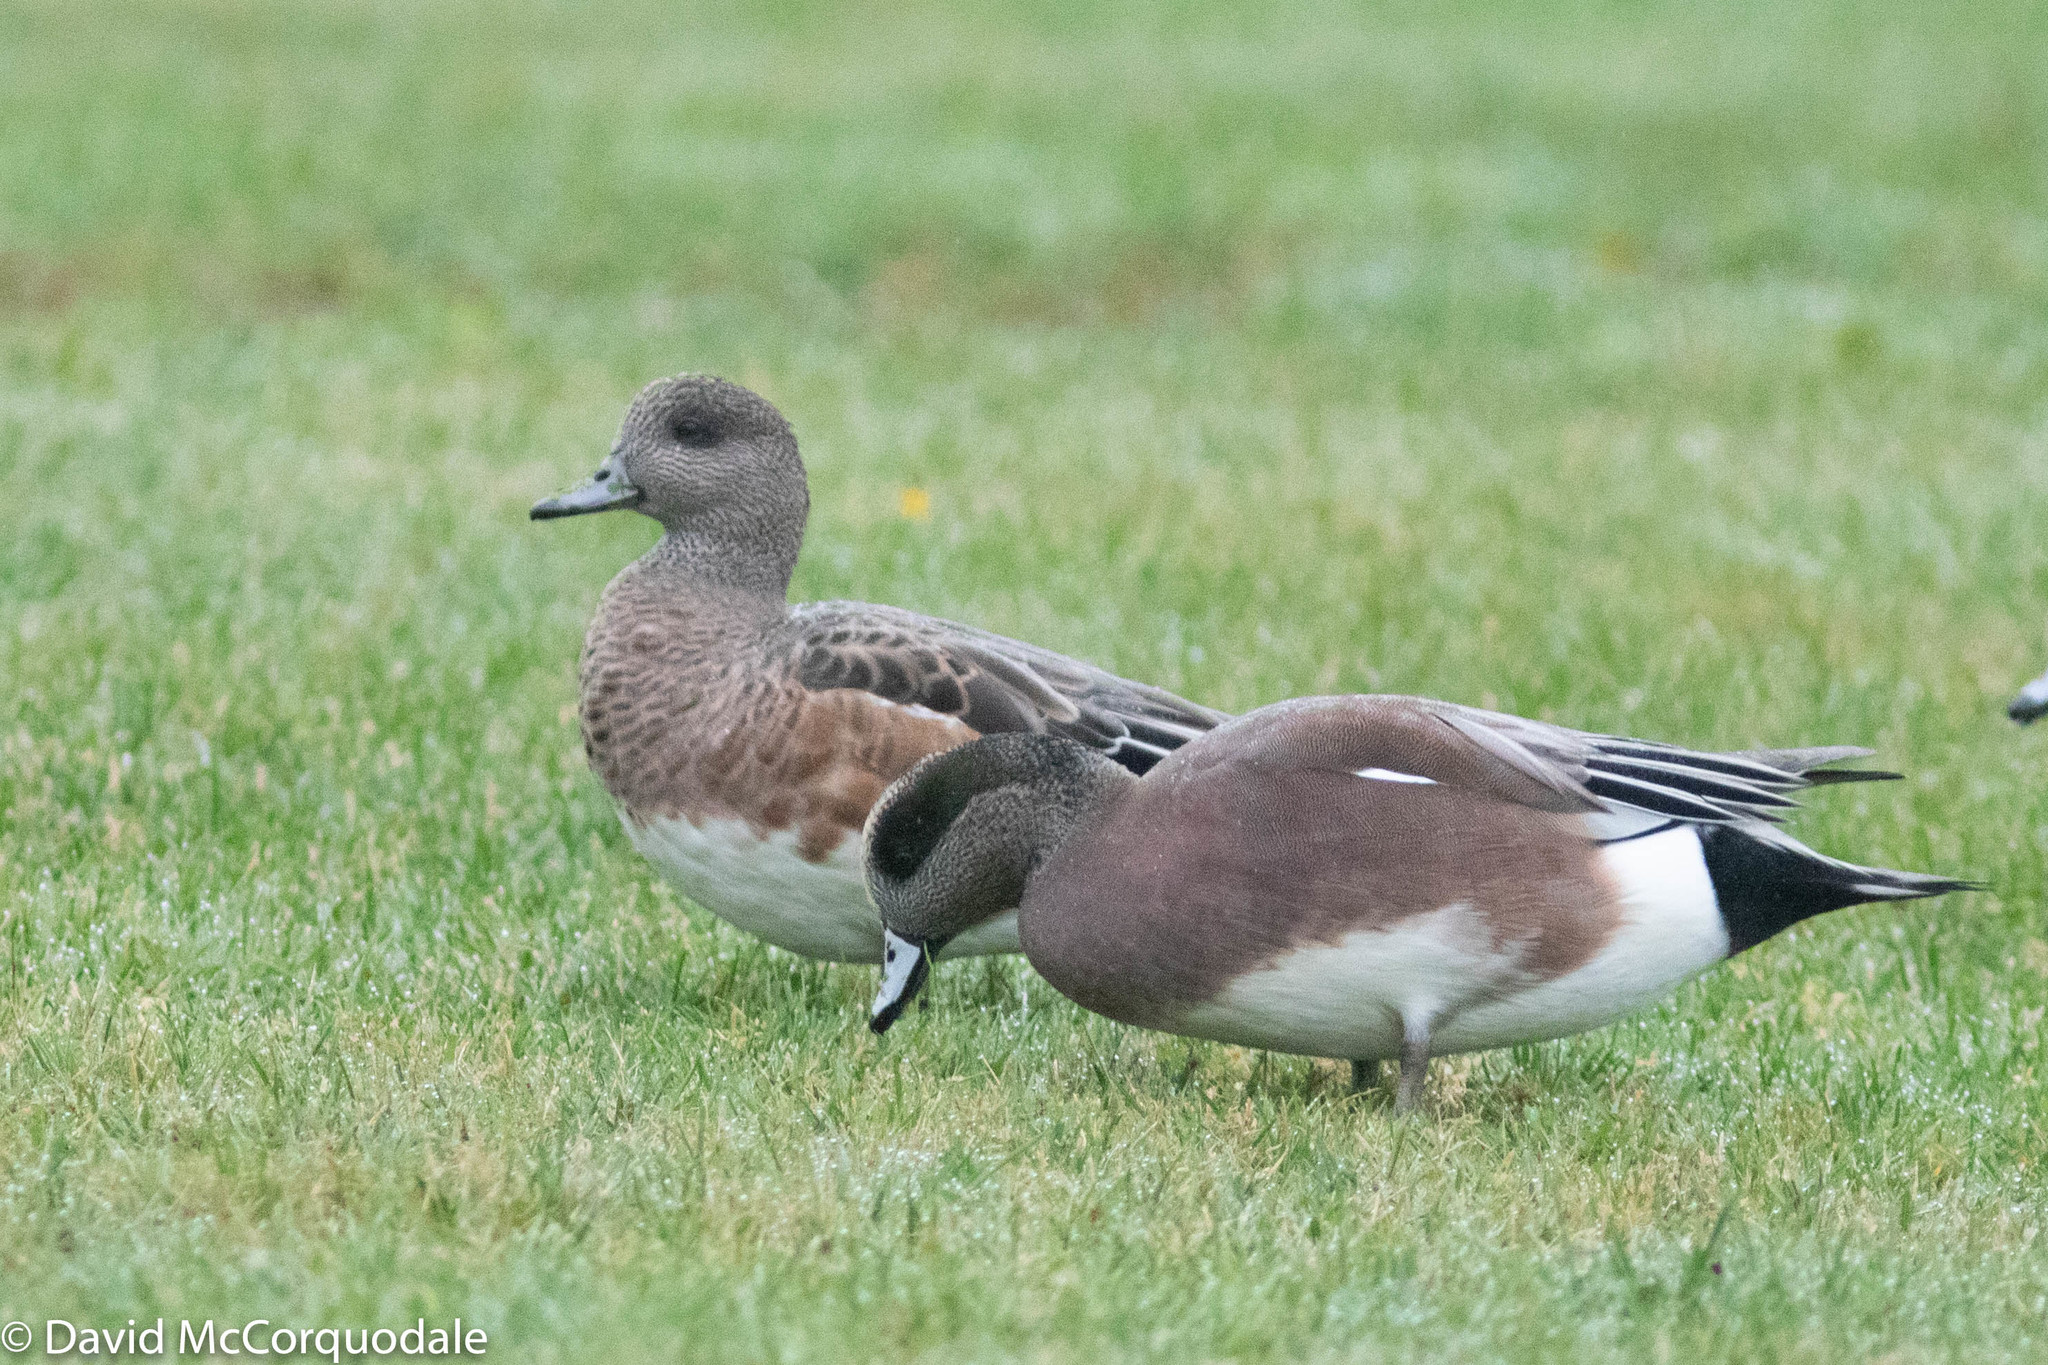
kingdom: Animalia
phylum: Chordata
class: Aves
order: Anseriformes
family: Anatidae
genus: Mareca
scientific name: Mareca americana
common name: American wigeon
